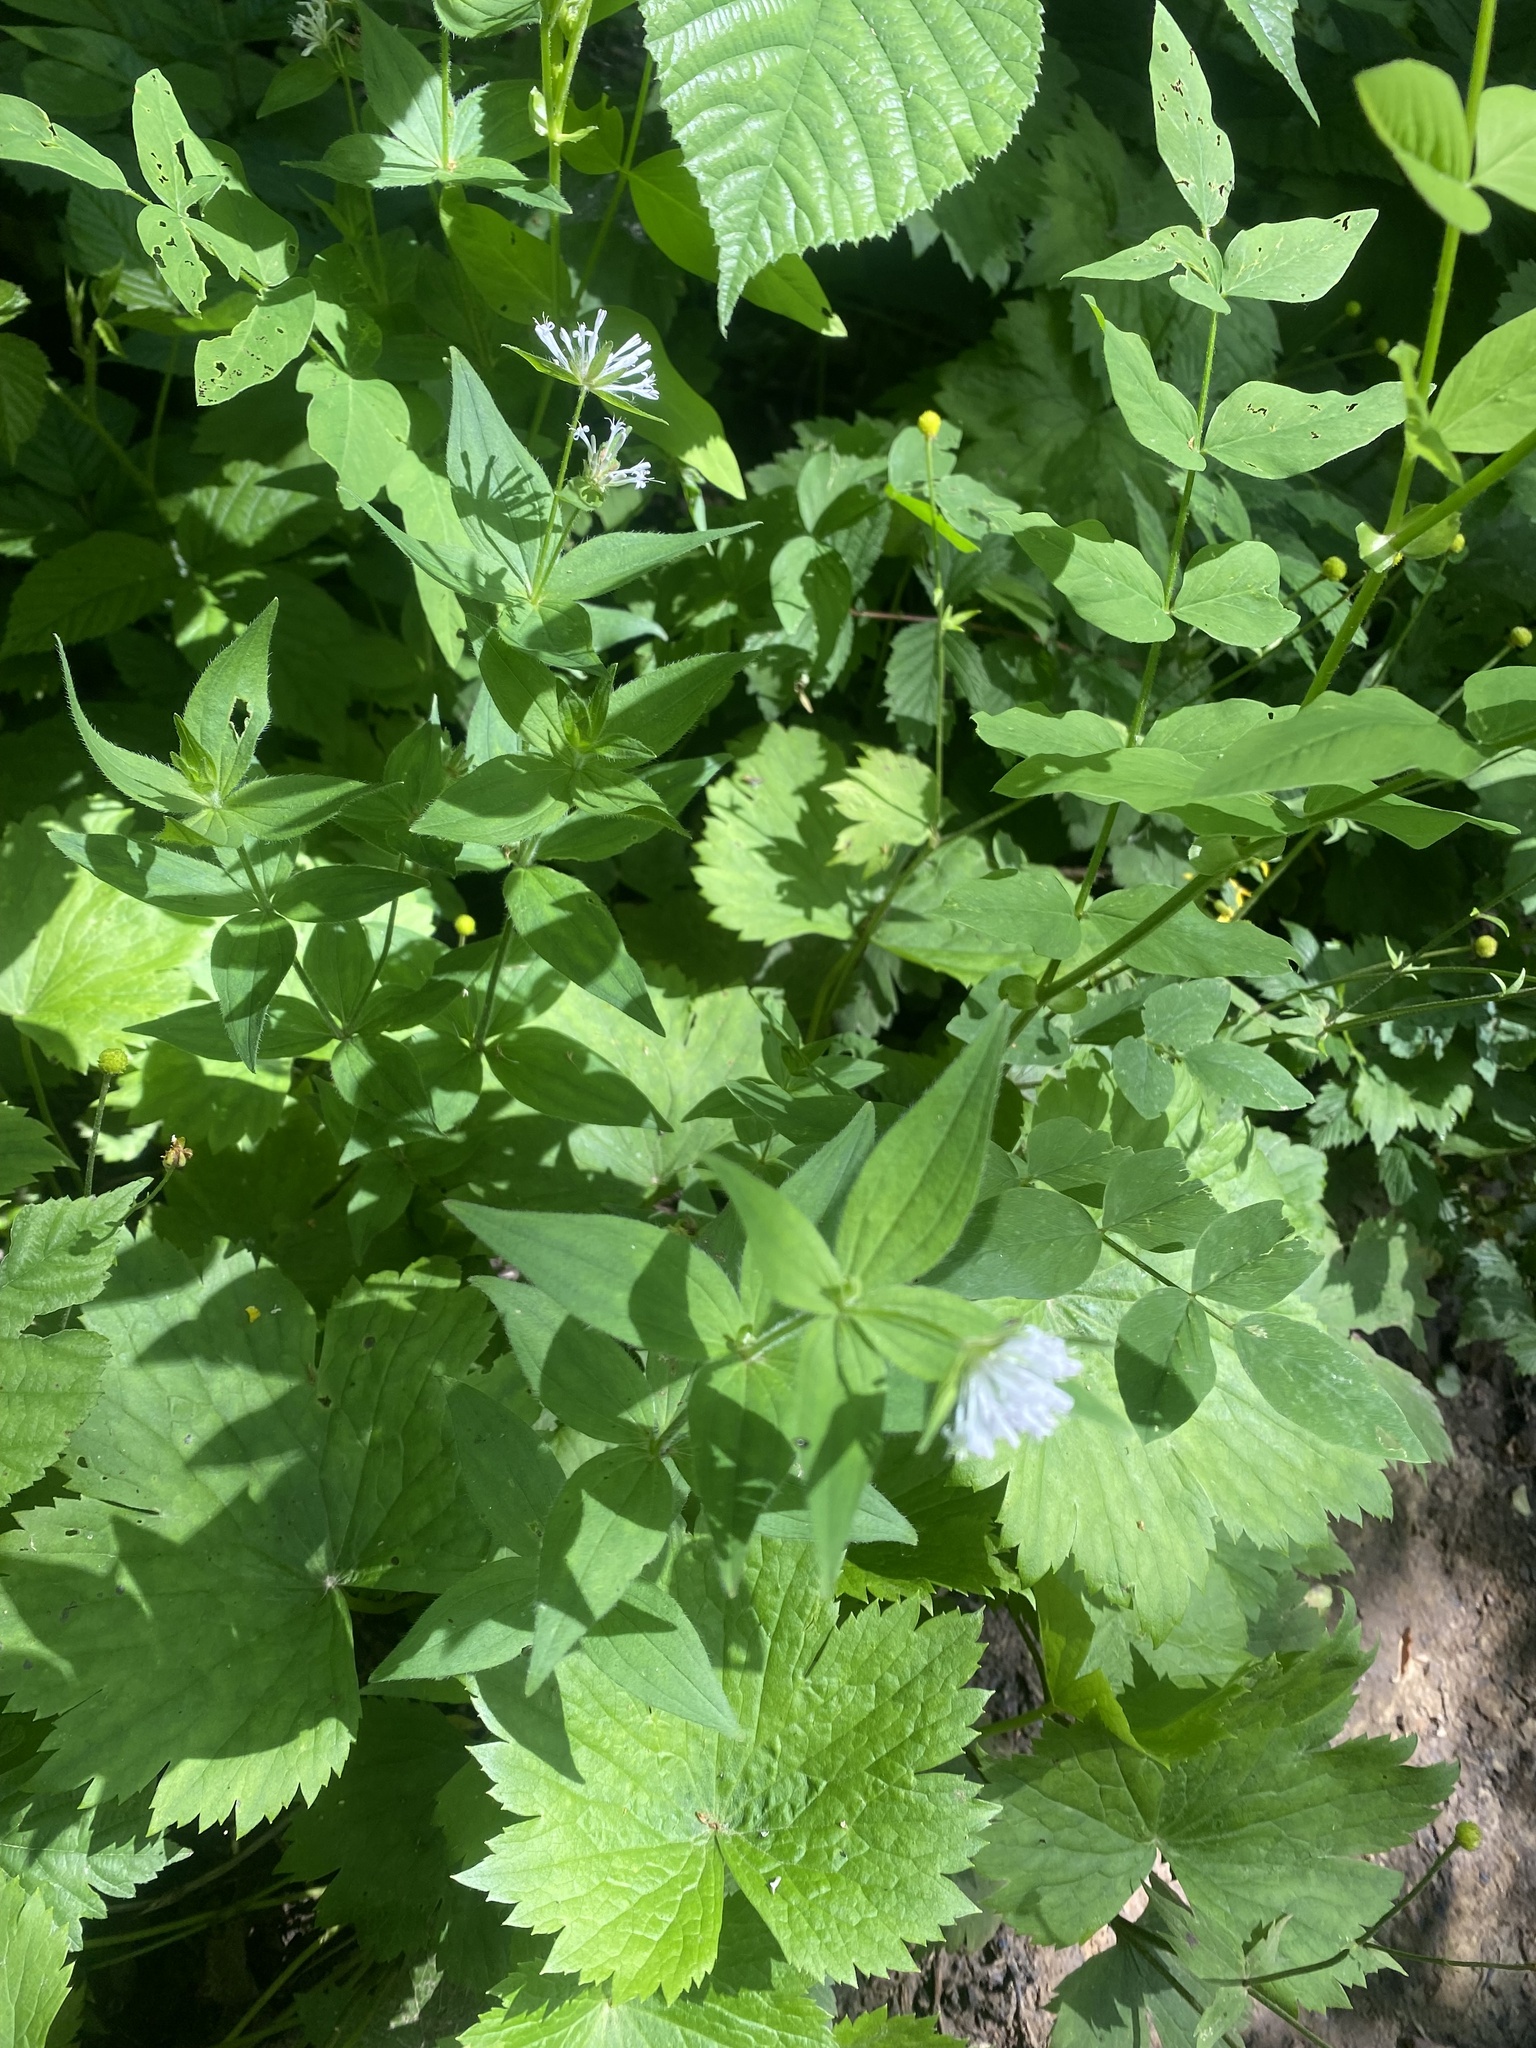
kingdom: Plantae
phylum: Tracheophyta
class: Magnoliopsida
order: Gentianales
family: Rubiaceae
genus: Asperula
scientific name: Asperula taurina
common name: Pink woodruff
